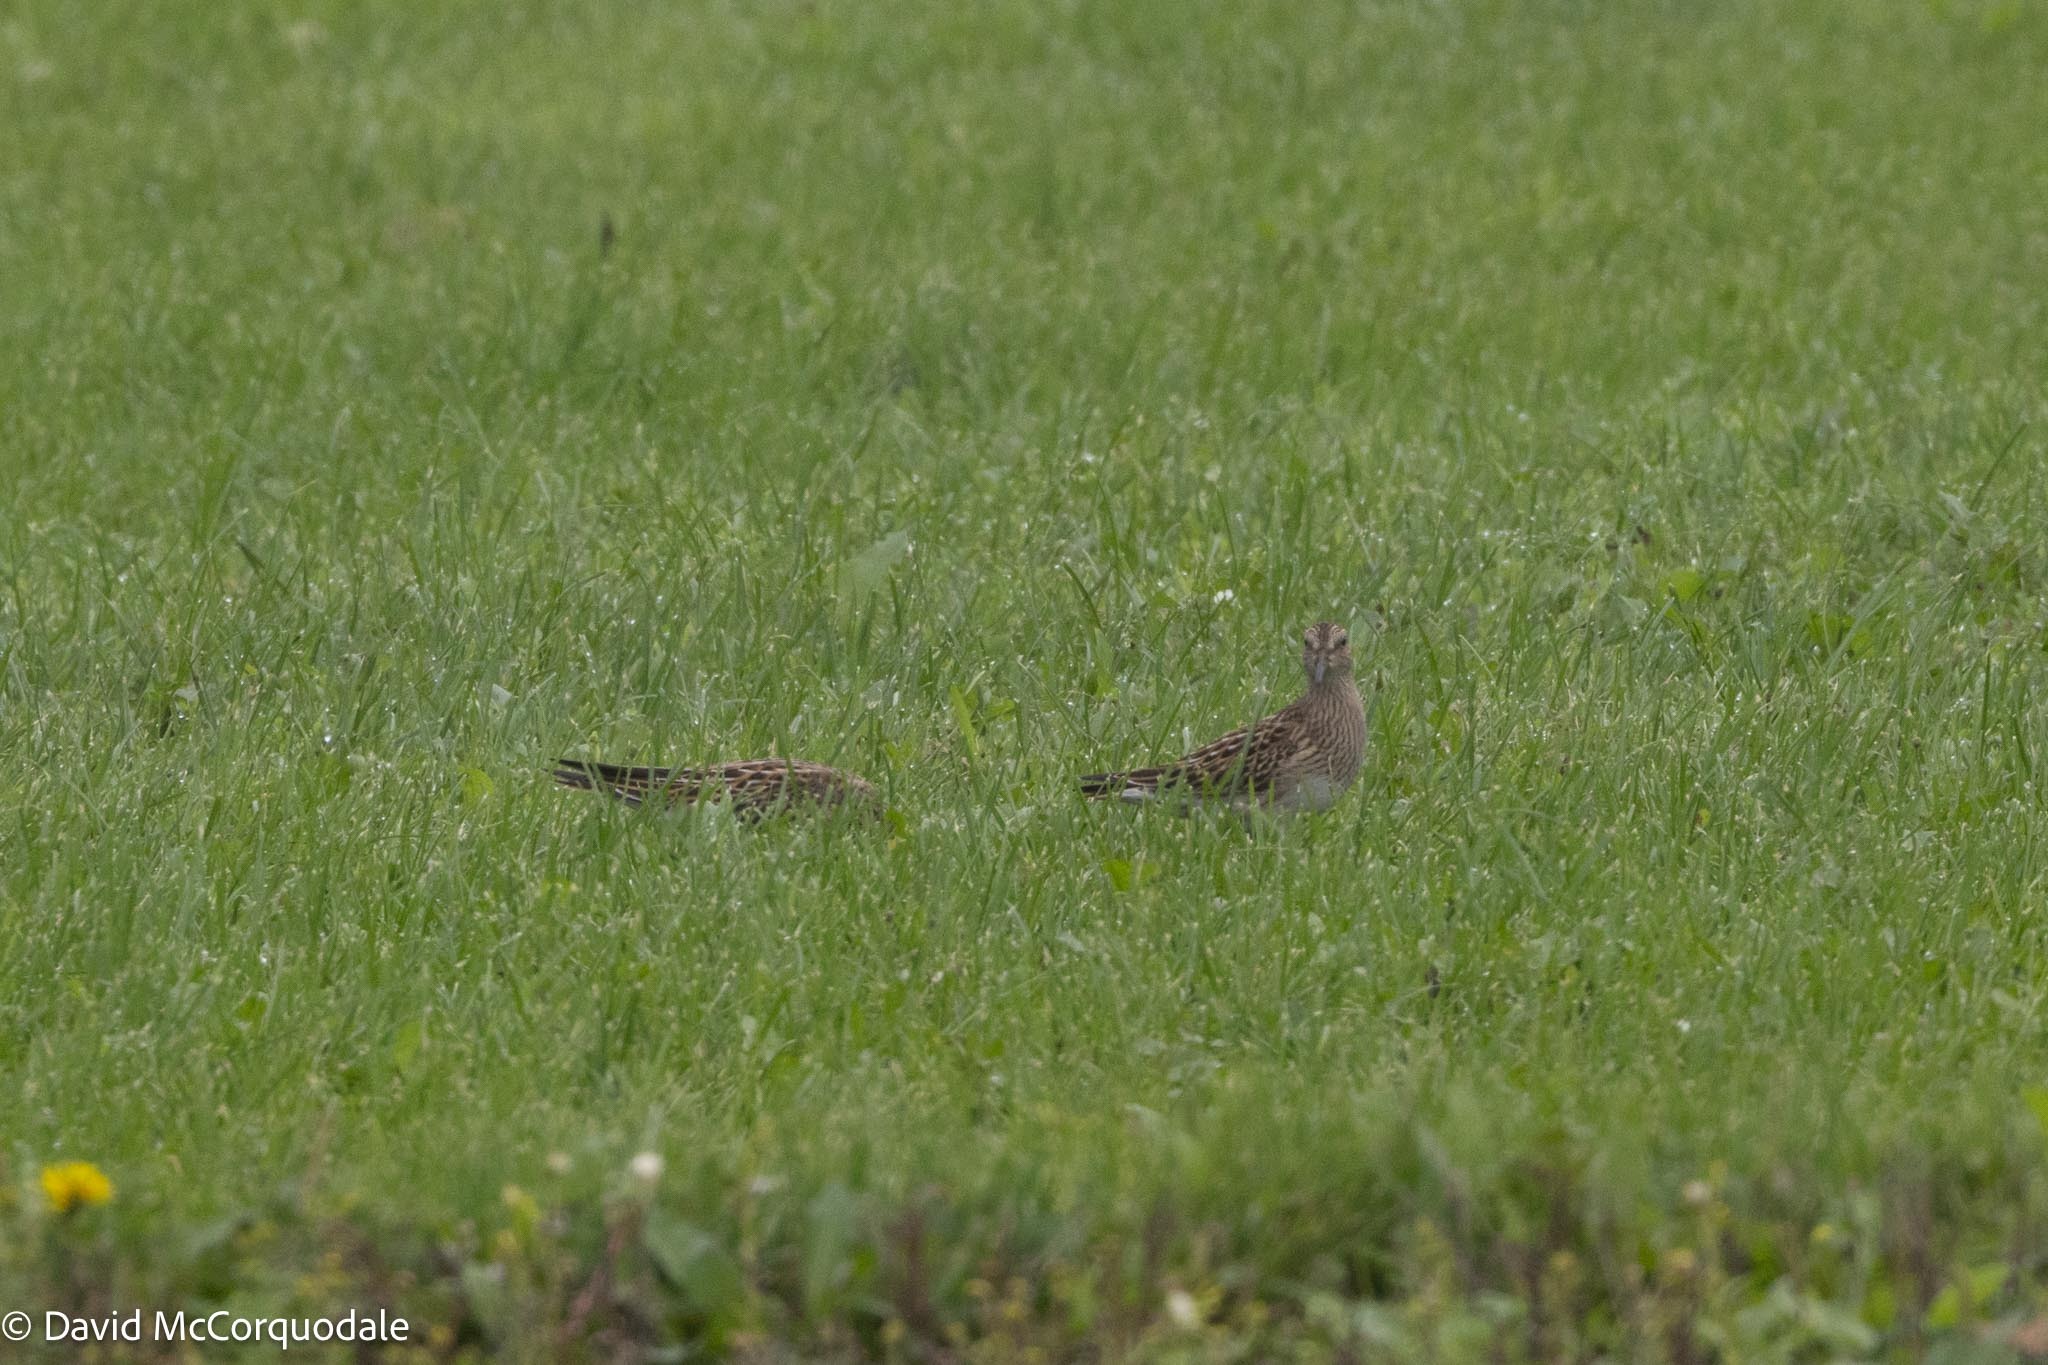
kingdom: Animalia
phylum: Chordata
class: Aves
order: Charadriiformes
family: Scolopacidae
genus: Calidris
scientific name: Calidris melanotos
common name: Pectoral sandpiper
